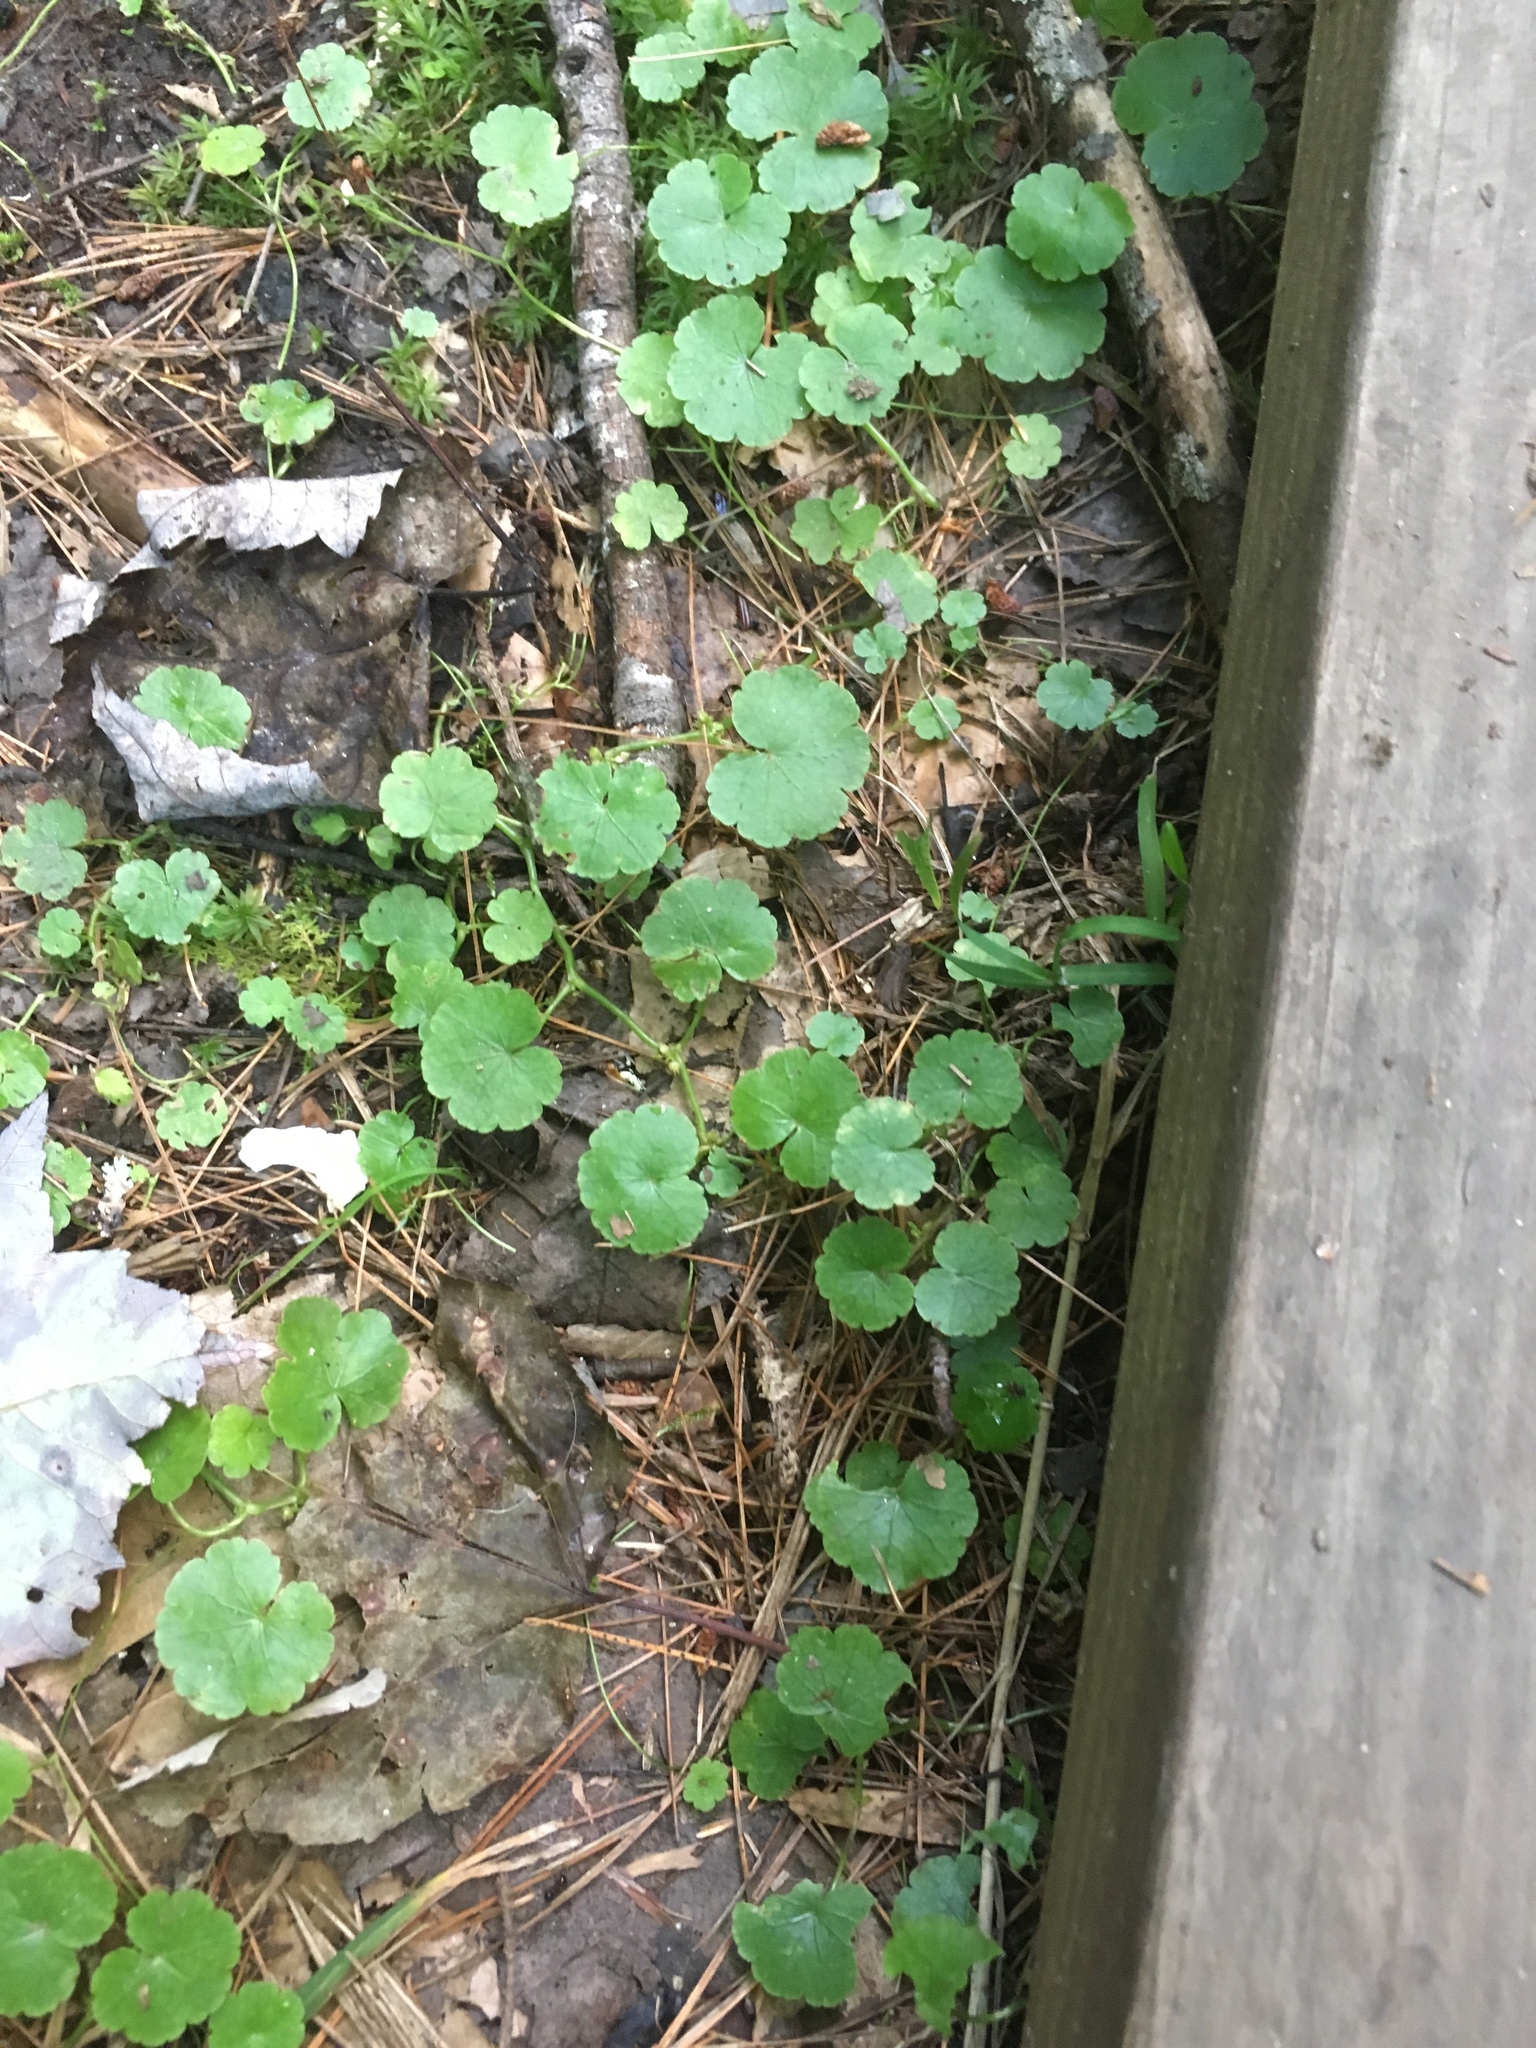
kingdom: Plantae
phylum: Tracheophyta
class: Magnoliopsida
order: Apiales
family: Araliaceae
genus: Hydrocotyle
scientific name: Hydrocotyle americana
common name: American water-pennywort
